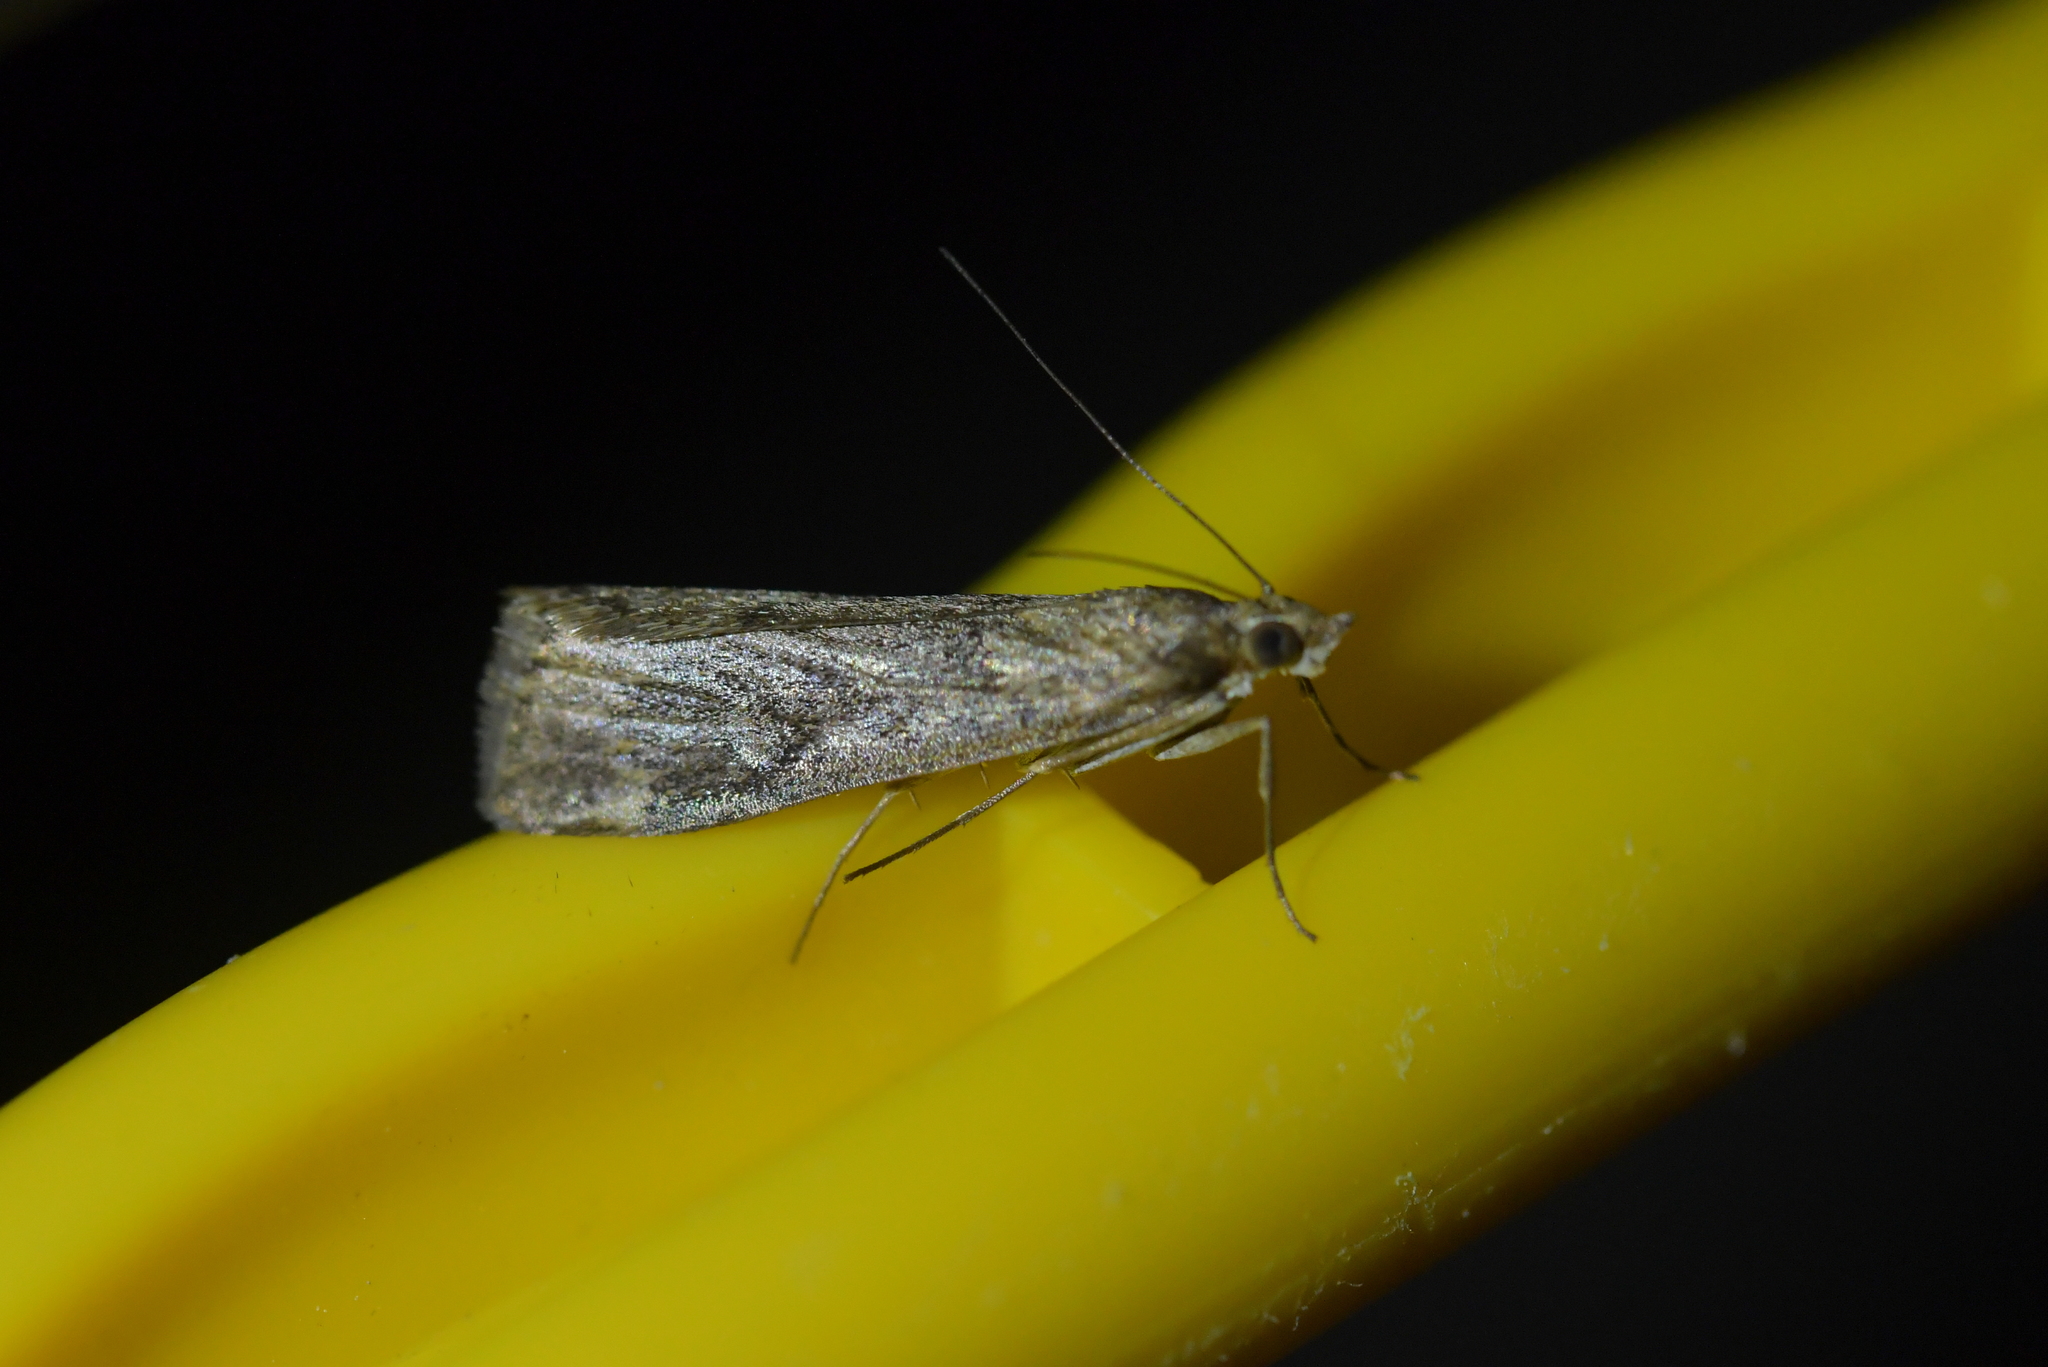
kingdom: Animalia
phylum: Arthropoda
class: Insecta
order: Lepidoptera
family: Crambidae
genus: Achyra
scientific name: Achyra affinitalis
